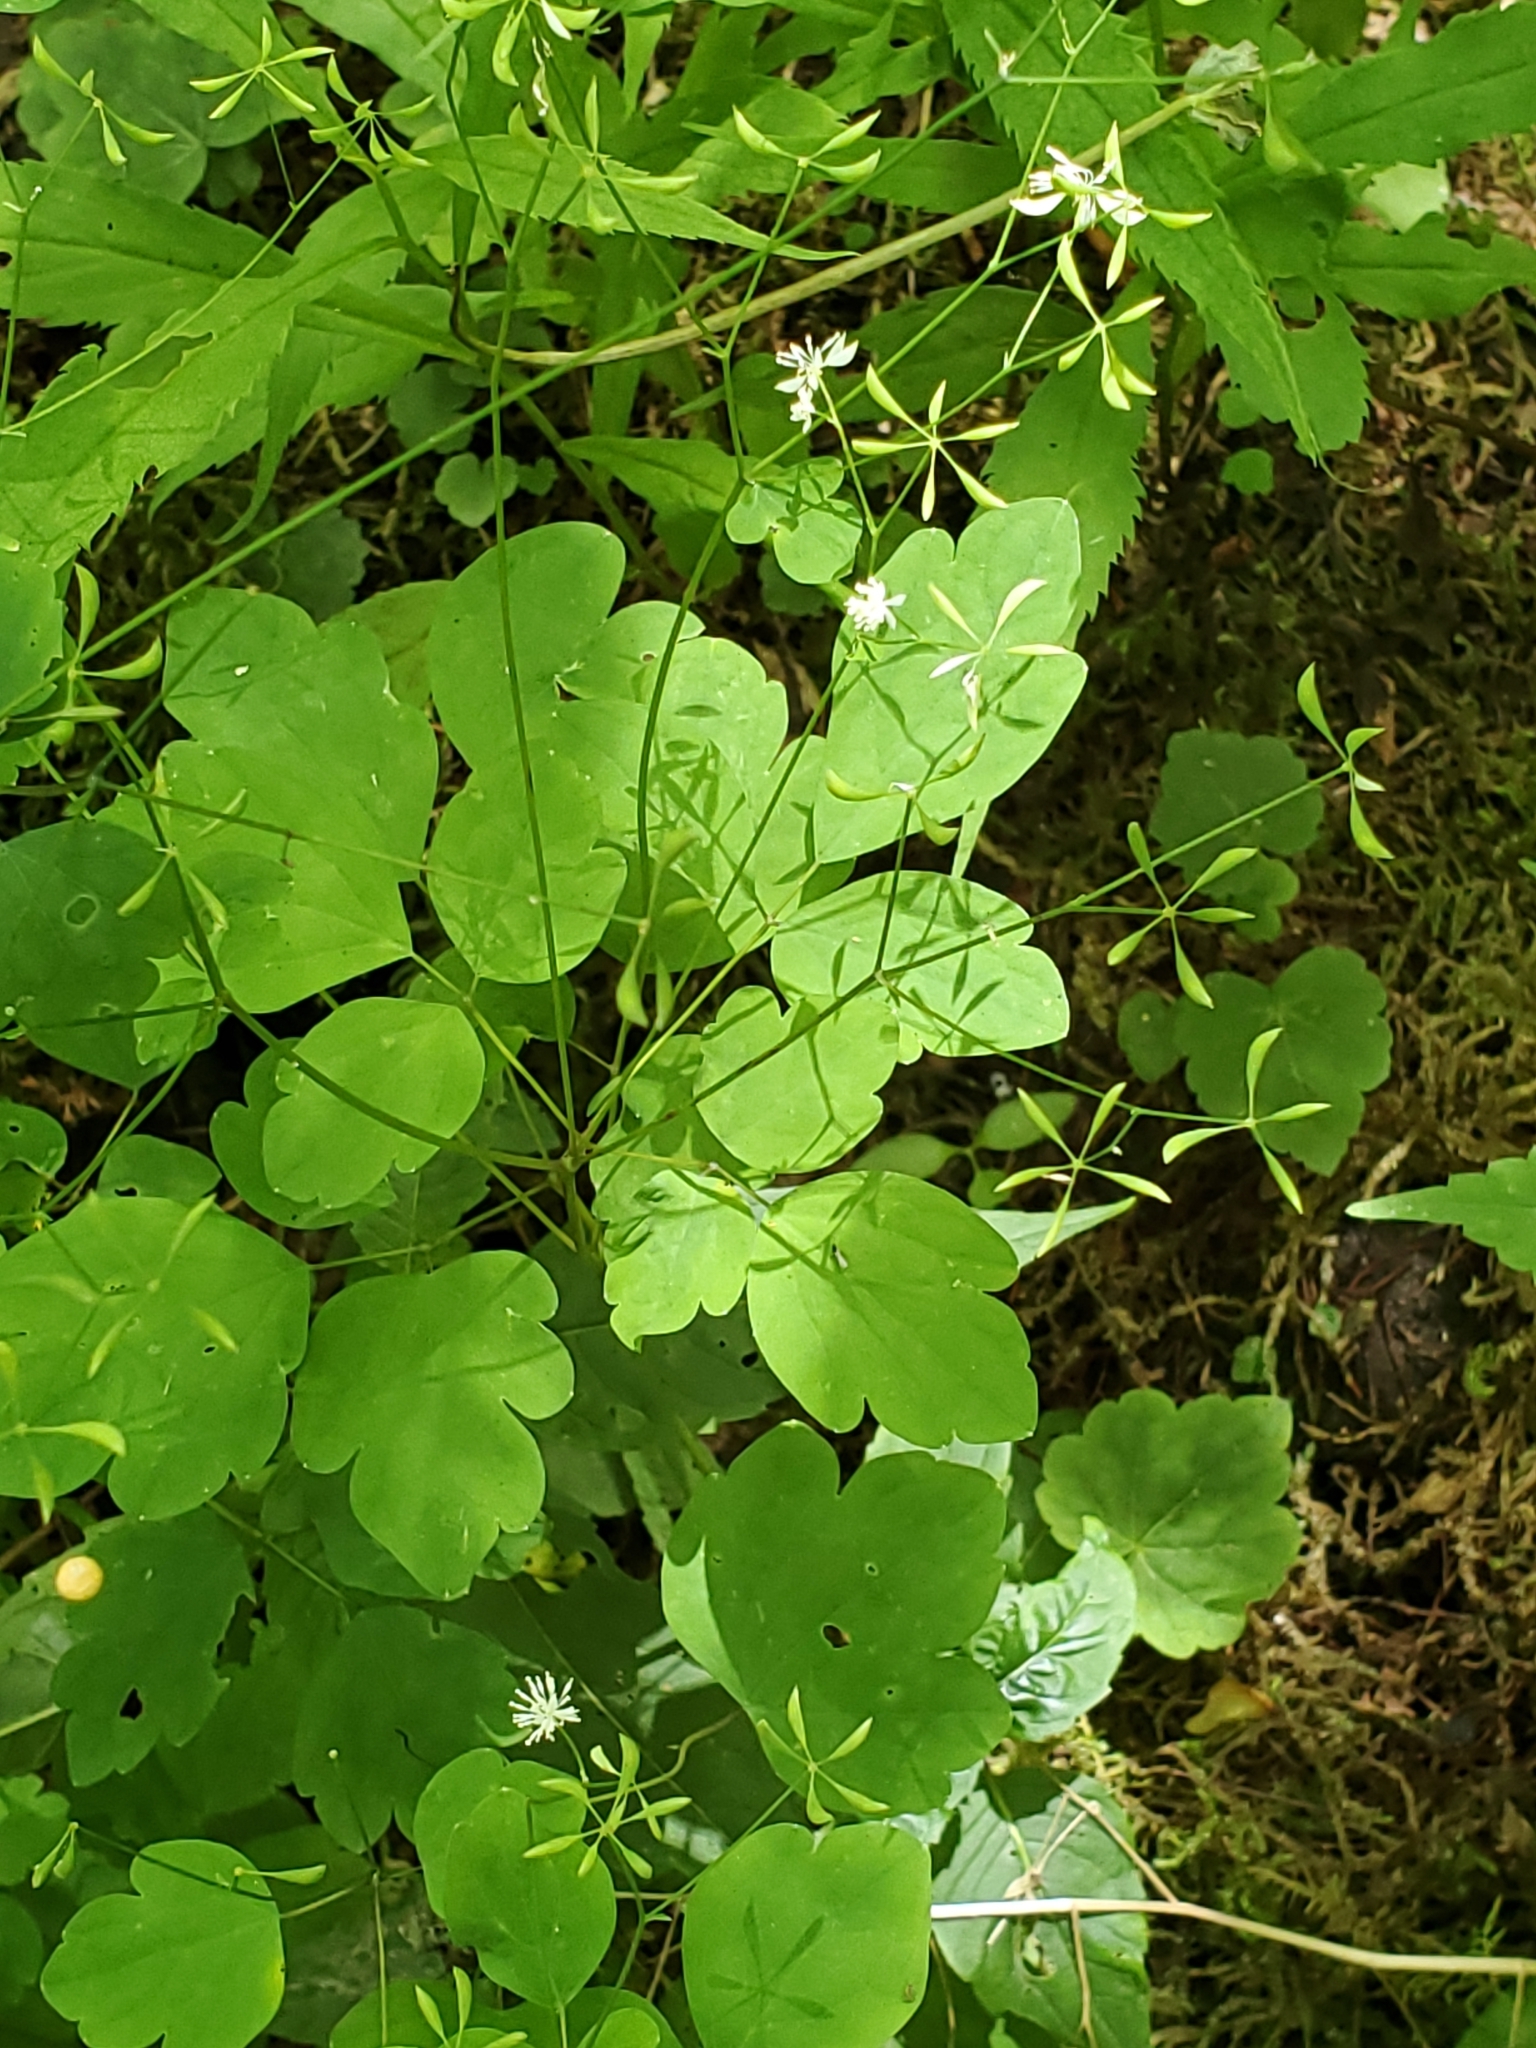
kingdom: Plantae
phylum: Tracheophyta
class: Magnoliopsida
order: Ranunculales
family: Ranunculaceae
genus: Thalictrum
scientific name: Thalictrum clavatum
